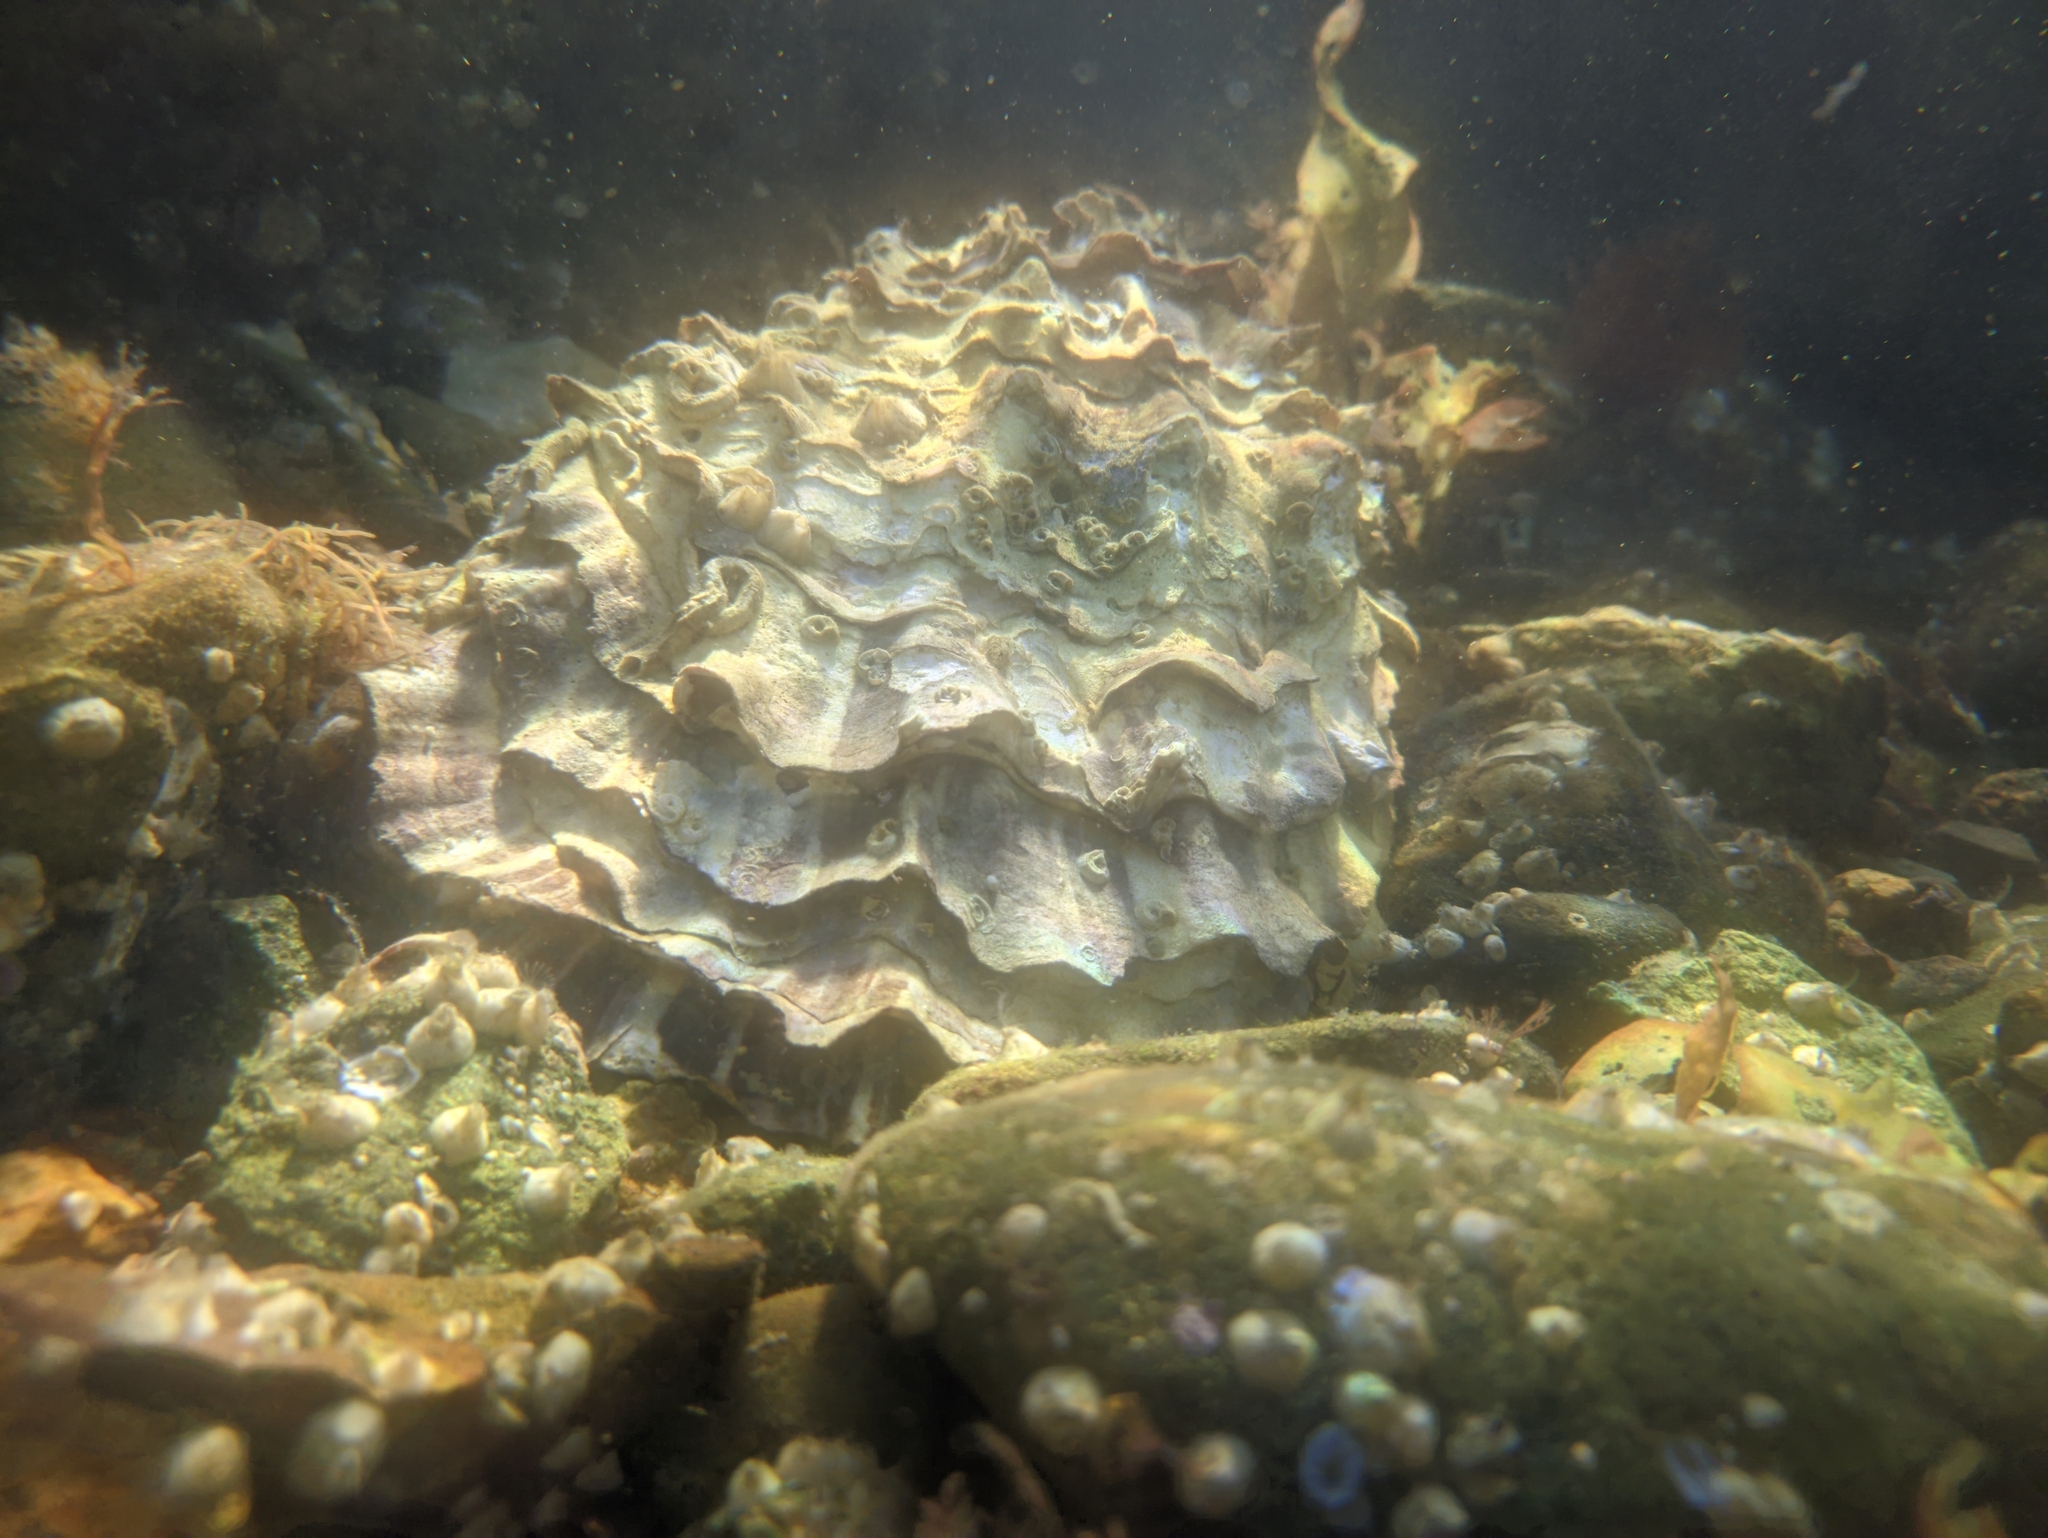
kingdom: Animalia
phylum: Mollusca
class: Bivalvia
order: Ostreida
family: Ostreidae
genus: Magallana
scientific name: Magallana gigas
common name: Pacific oyster
